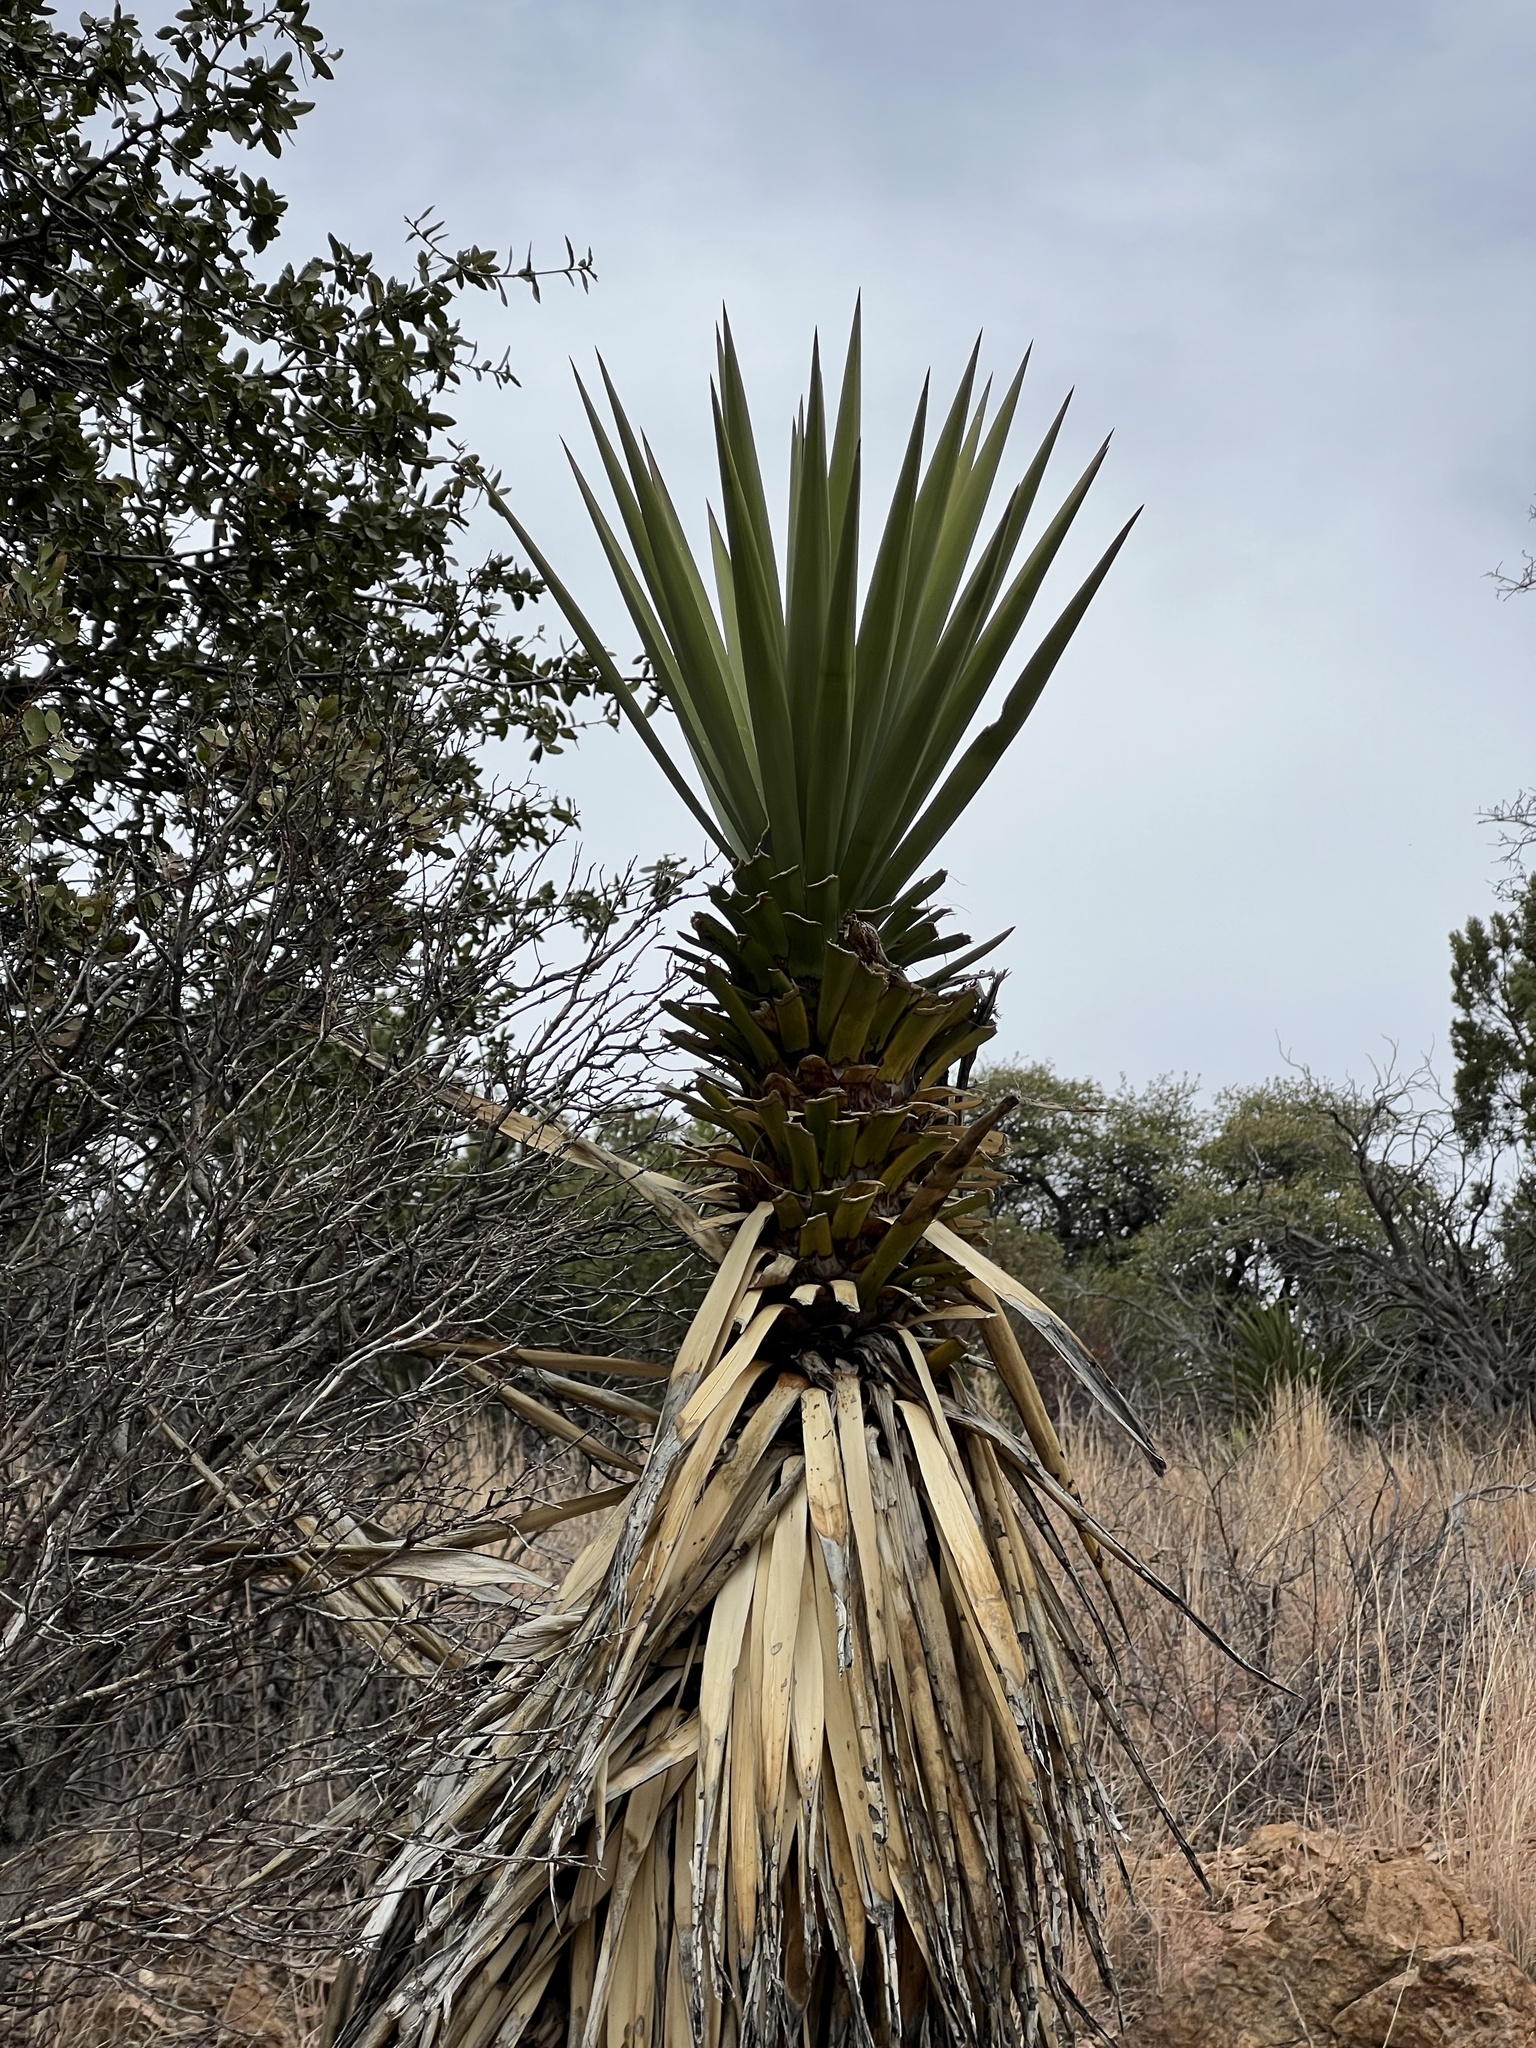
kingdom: Plantae
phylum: Tracheophyta
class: Liliopsida
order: Asparagales
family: Asparagaceae
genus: Yucca
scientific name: Yucca madrensis
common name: Hoary yucca
